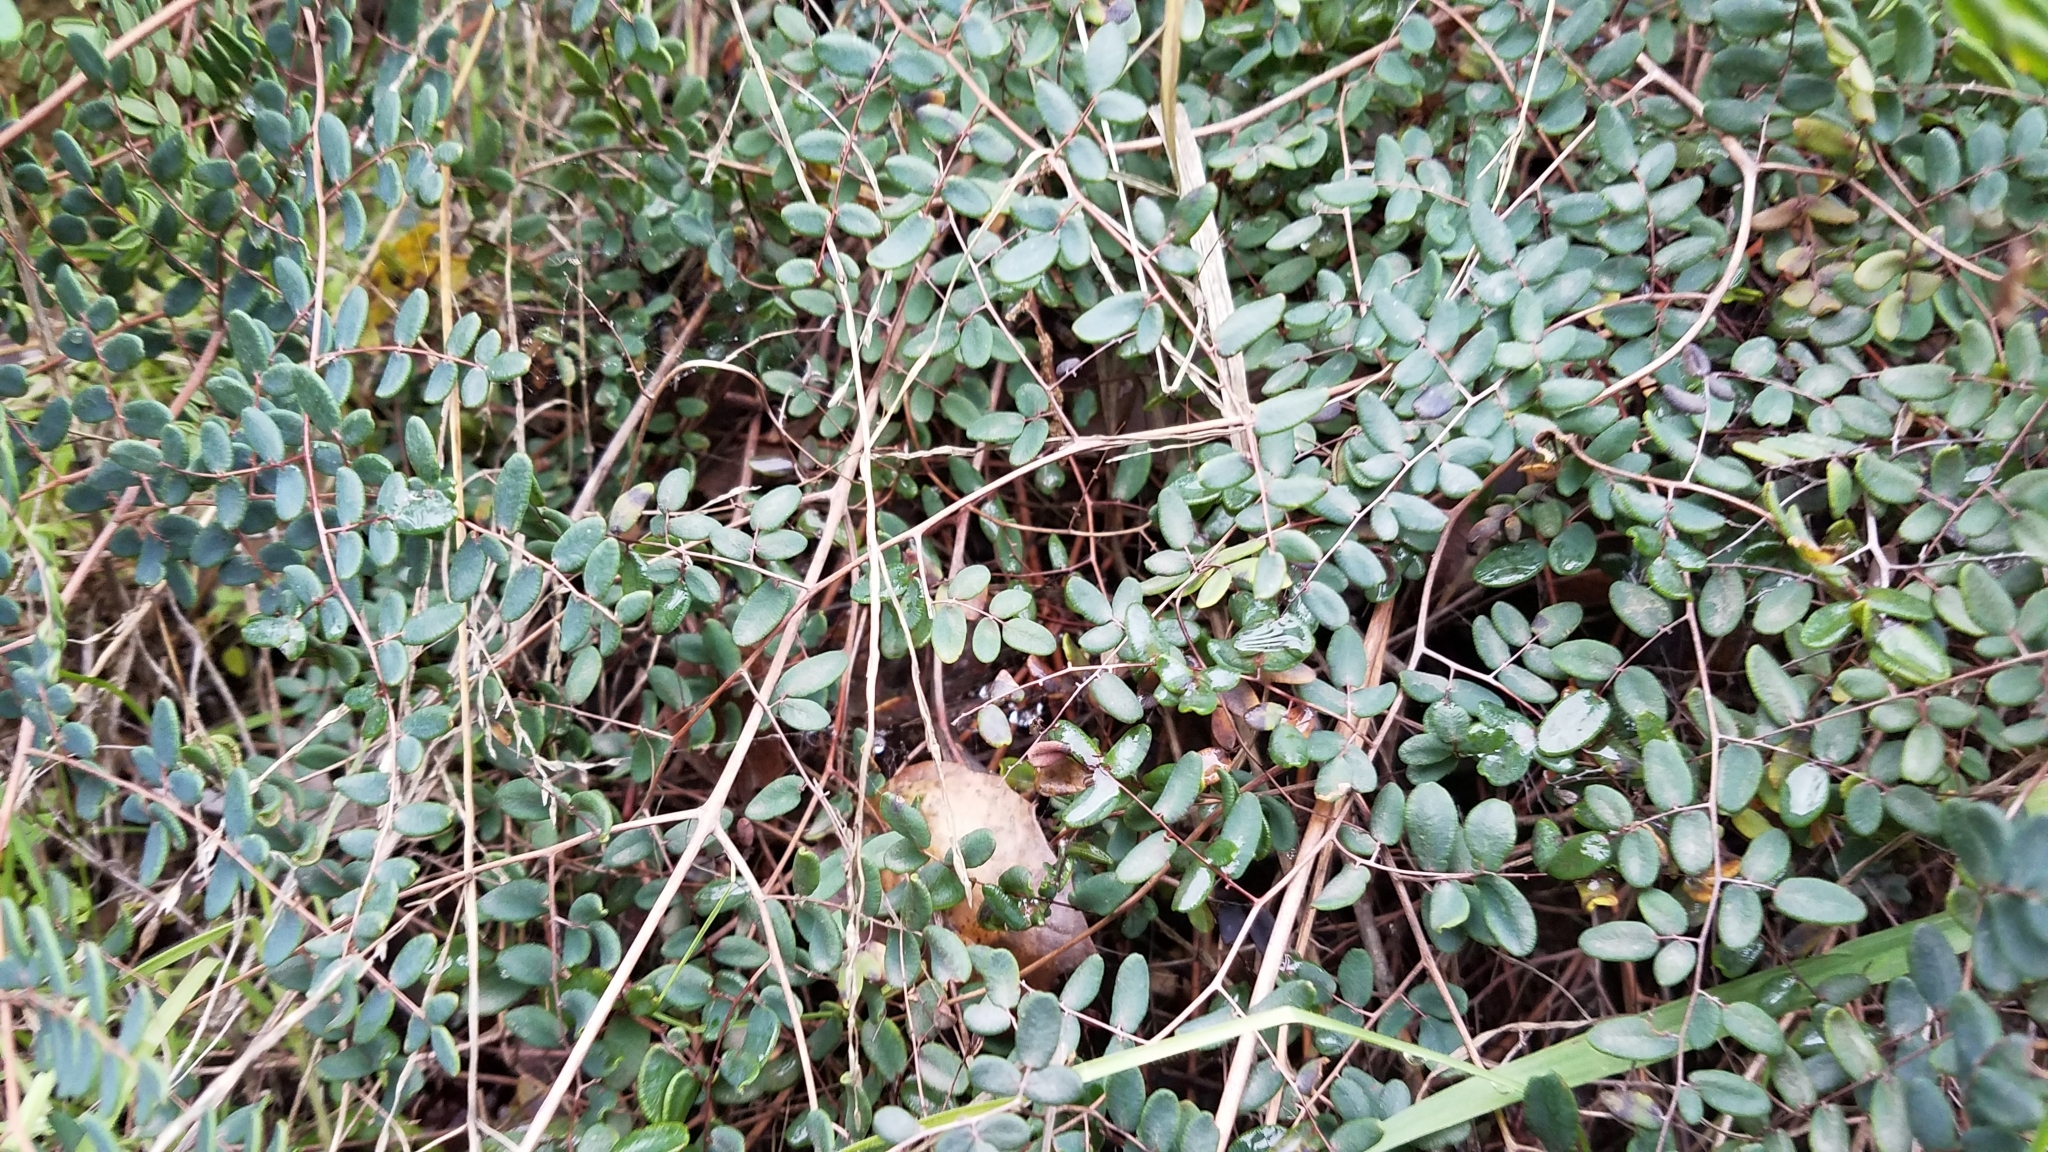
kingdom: Plantae
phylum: Tracheophyta
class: Polypodiopsida
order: Polypodiales
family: Pteridaceae
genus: Pellaea
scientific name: Pellaea andromedifolia
